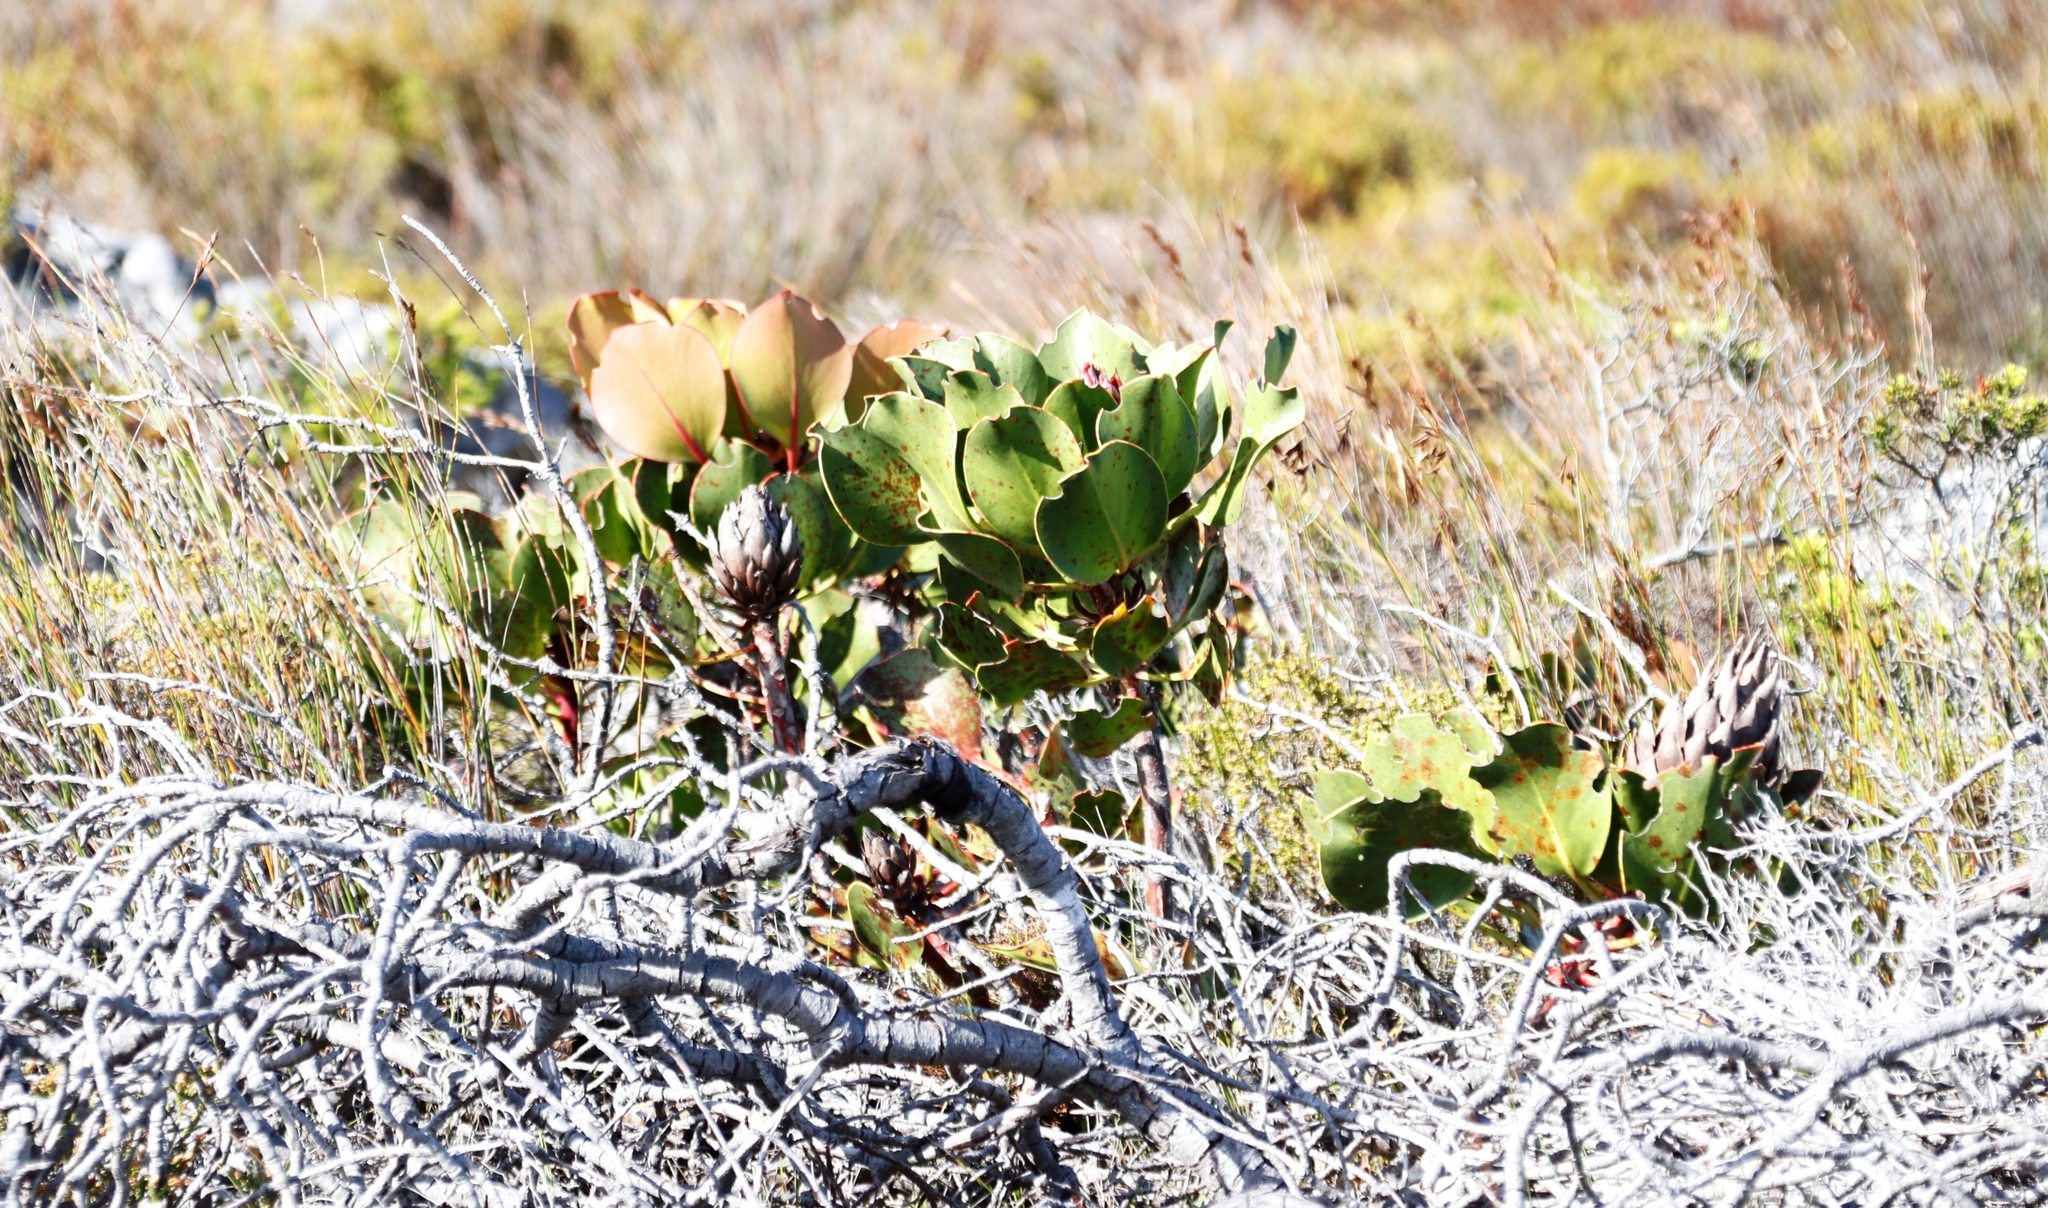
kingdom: Plantae
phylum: Tracheophyta
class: Magnoliopsida
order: Proteales
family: Proteaceae
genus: Protea
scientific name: Protea cynaroides
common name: King protea
